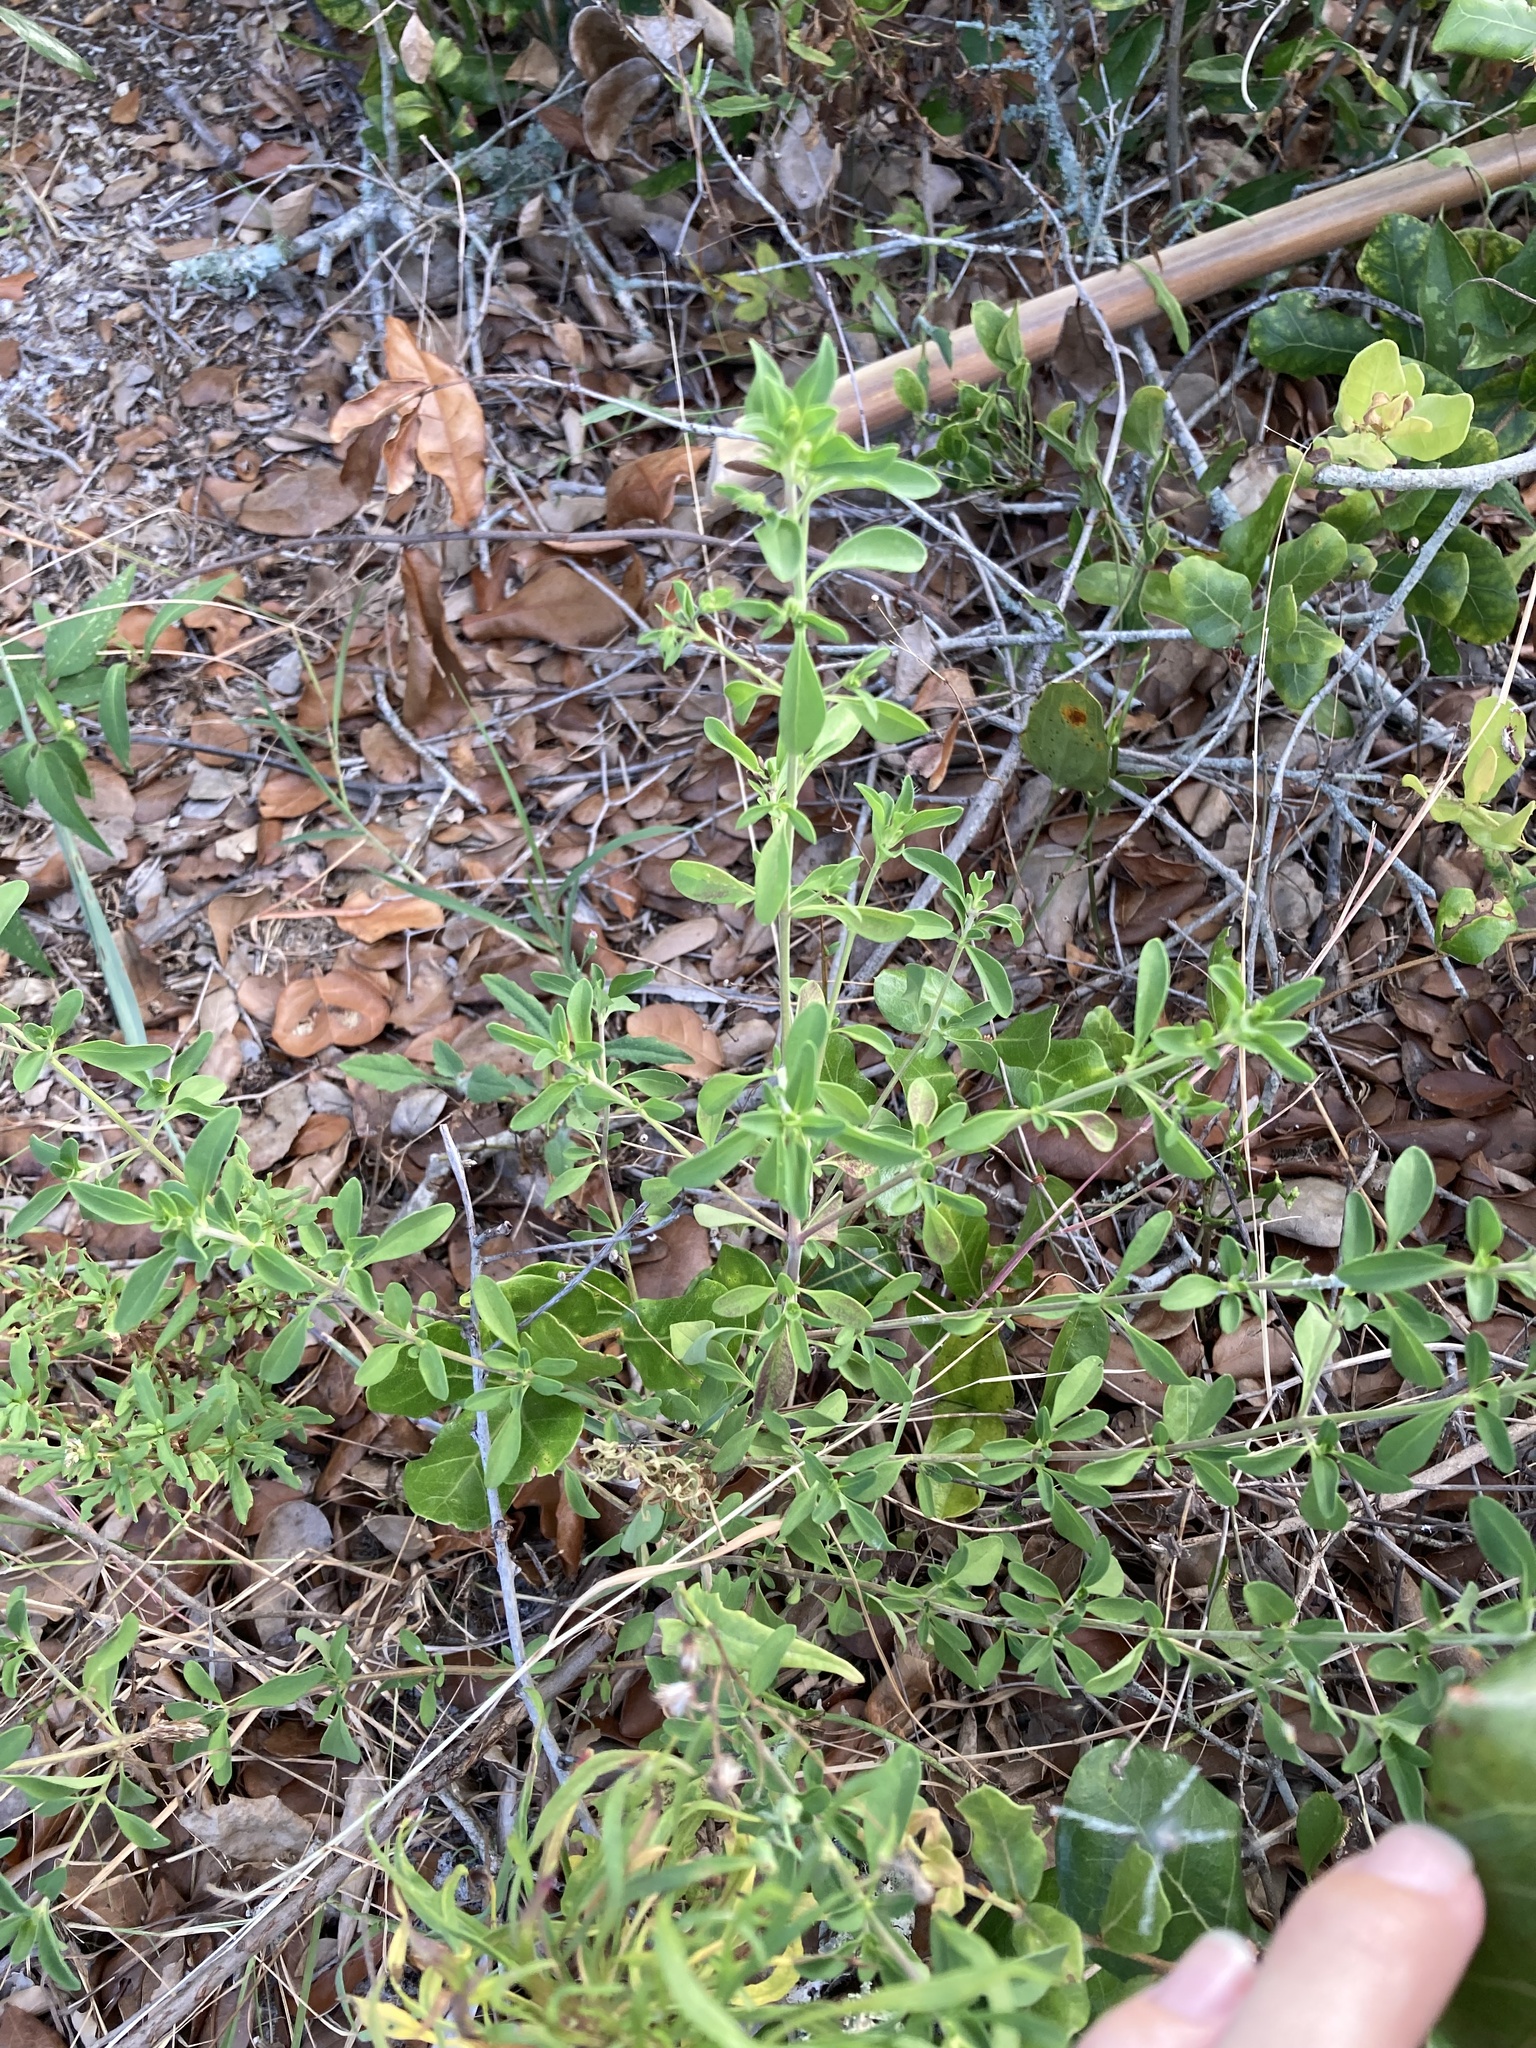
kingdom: Plantae
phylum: Tracheophyta
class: Magnoliopsida
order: Lamiales
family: Lamiaceae
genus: Trichostema
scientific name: Trichostema
